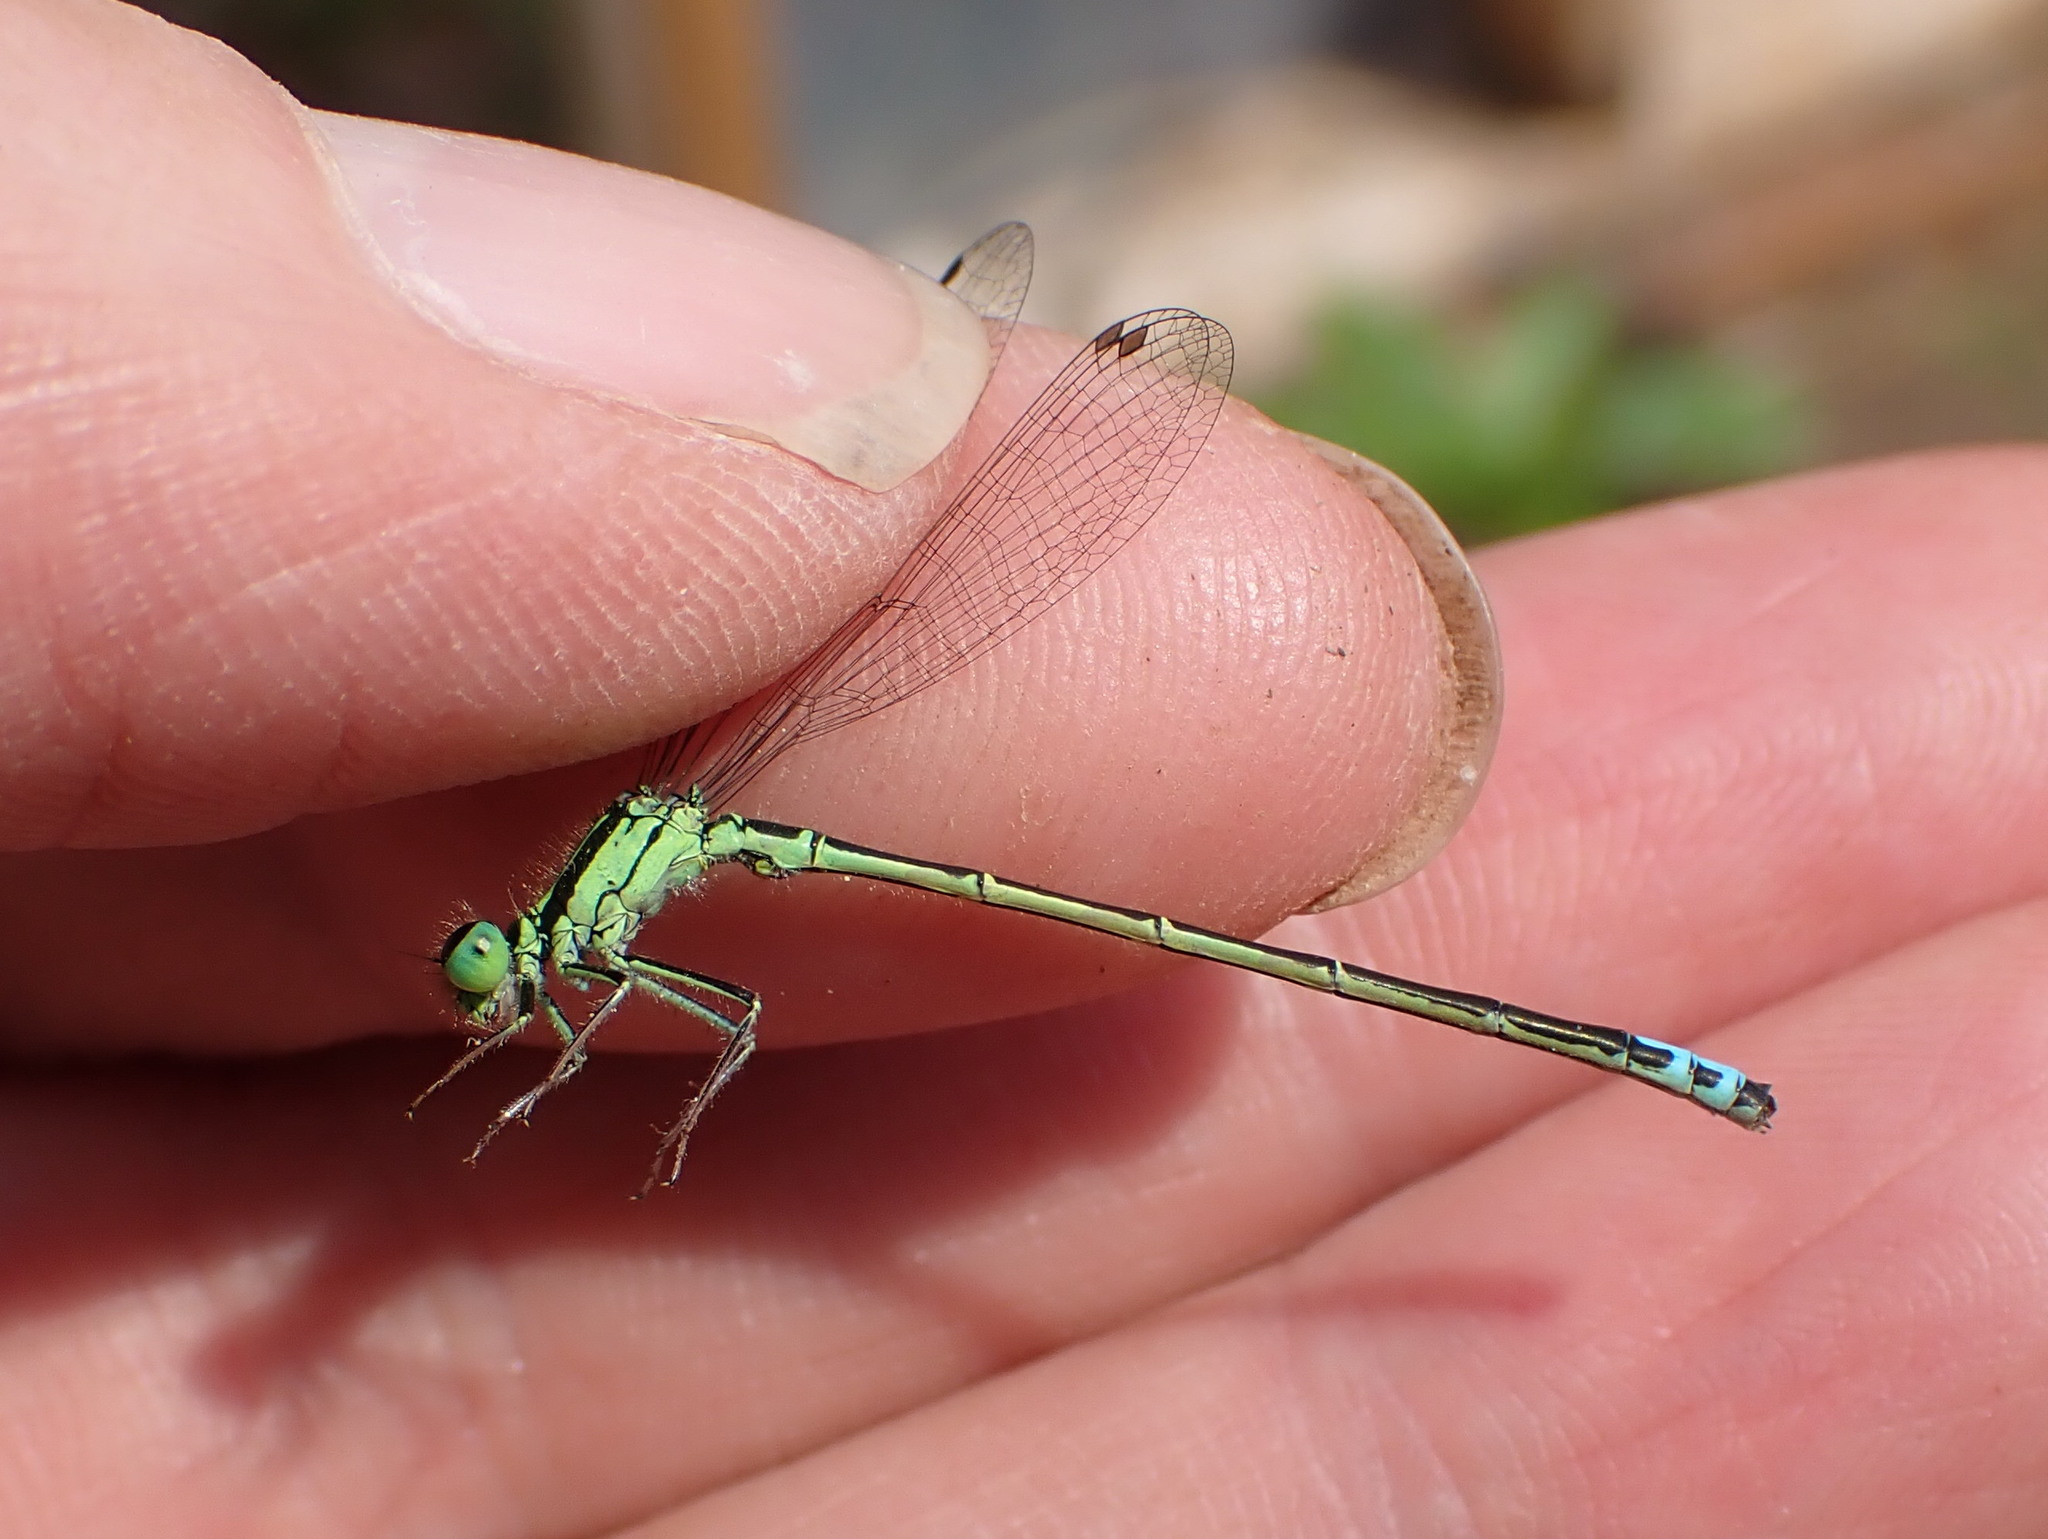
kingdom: Animalia
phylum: Arthropoda
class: Insecta
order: Odonata
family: Coenagrionidae
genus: Ischnura
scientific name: Ischnura verticalis
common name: Eastern forktail
